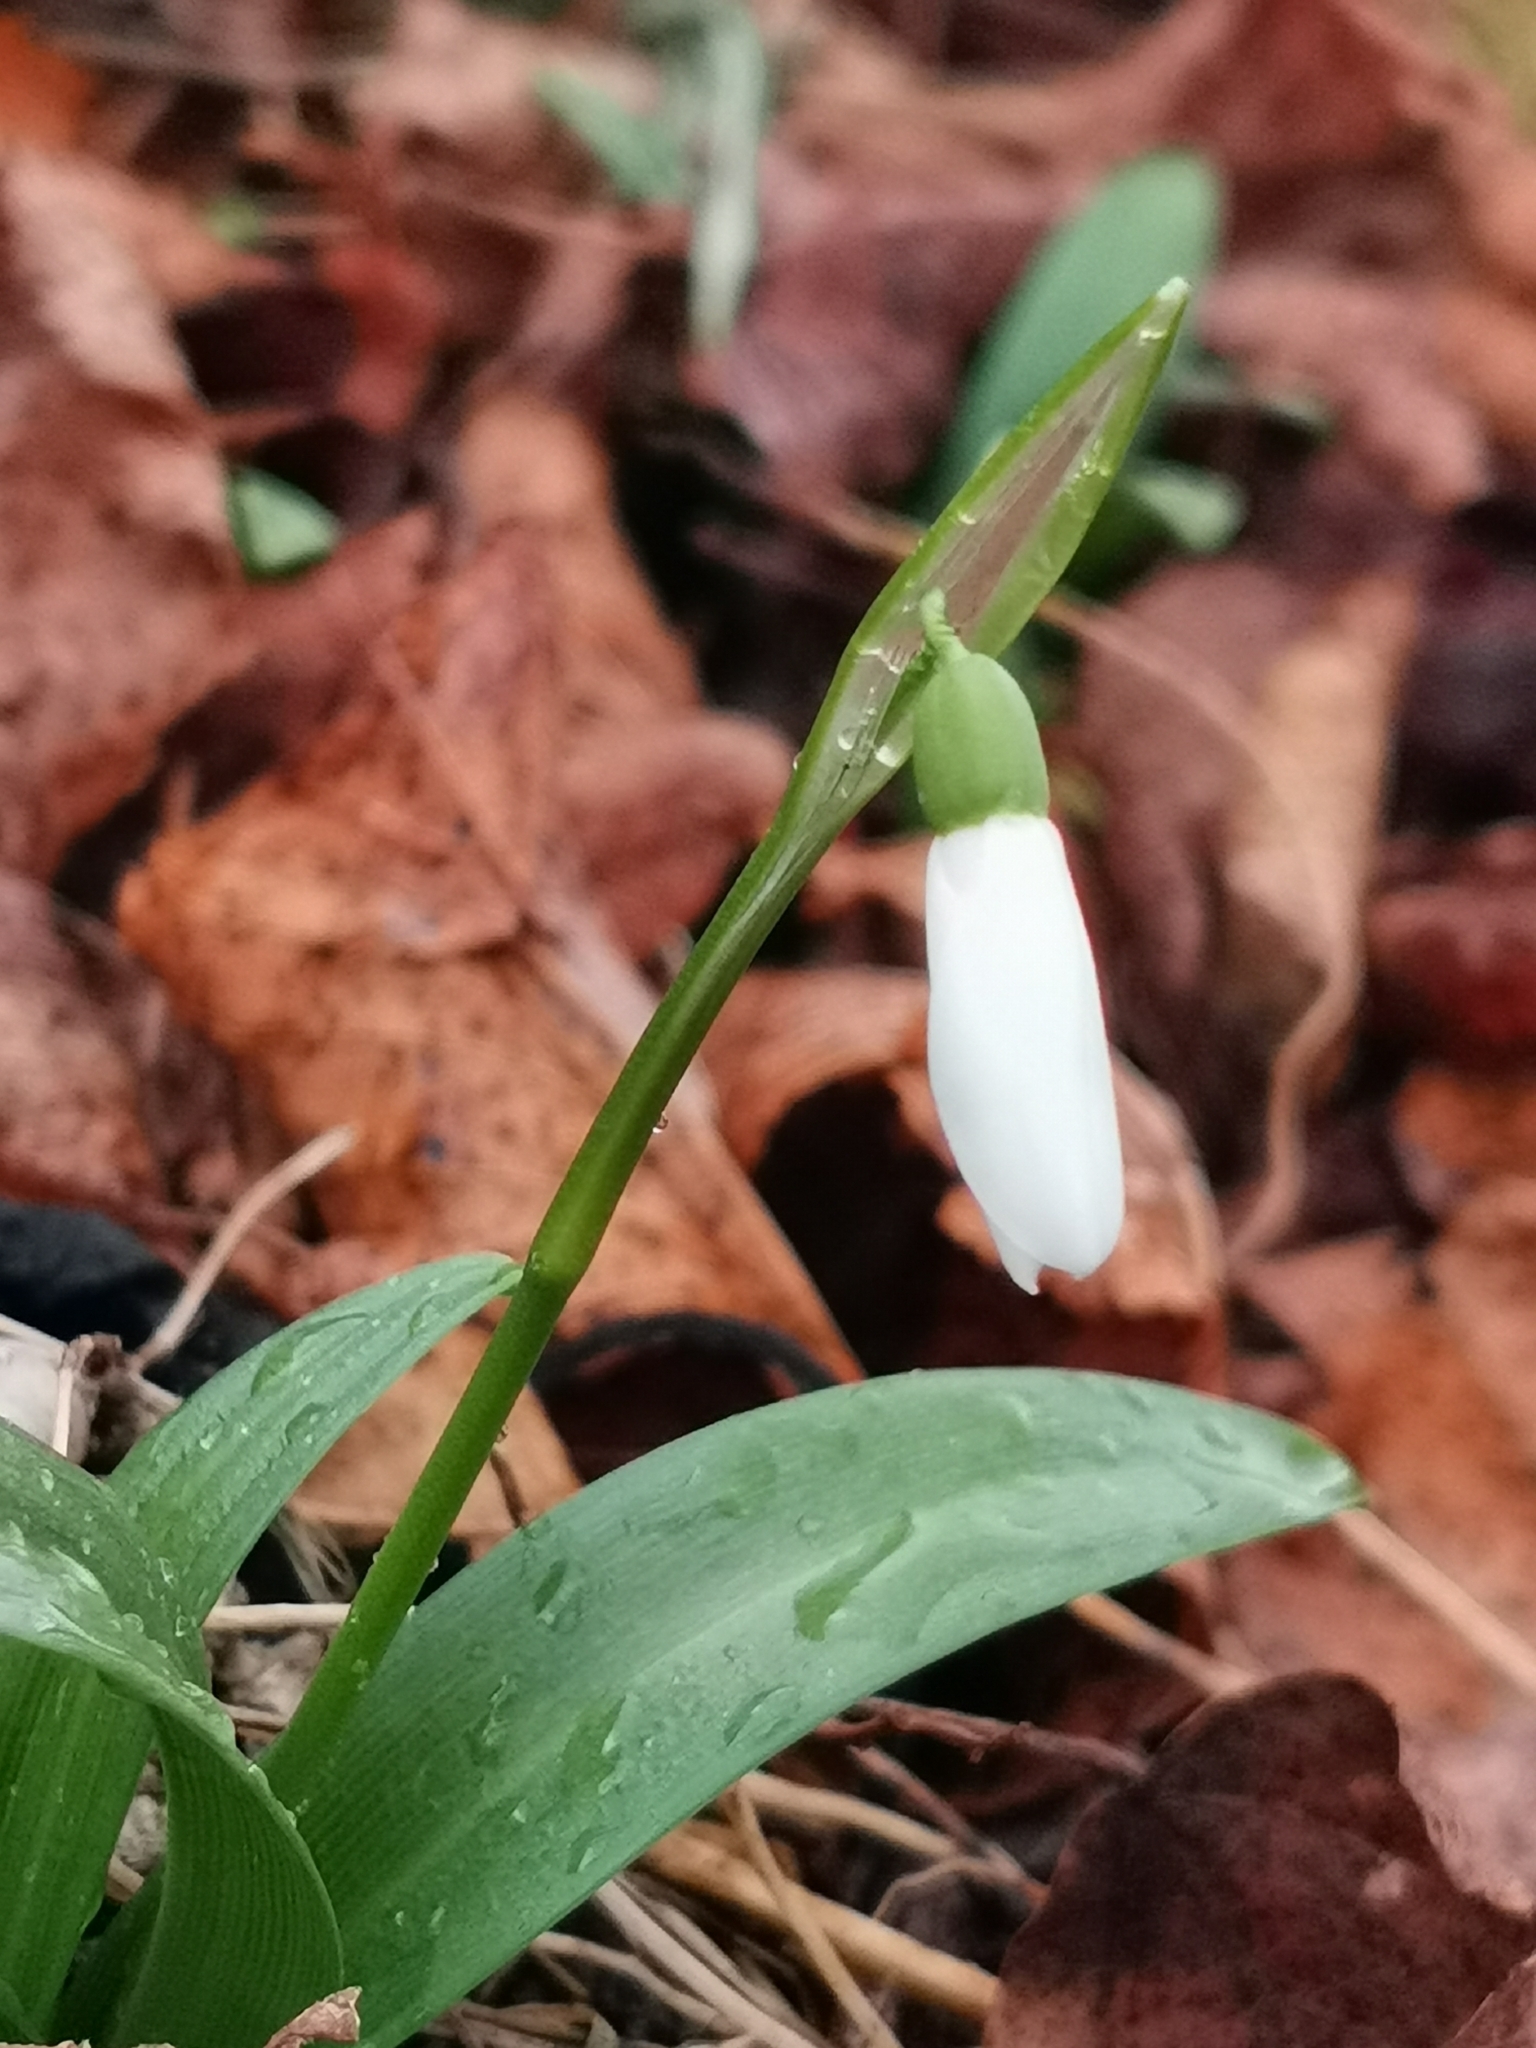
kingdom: Plantae
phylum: Tracheophyta
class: Liliopsida
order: Asparagales
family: Amaryllidaceae
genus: Galanthus
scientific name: Galanthus woronowii
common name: Green snowdrop
